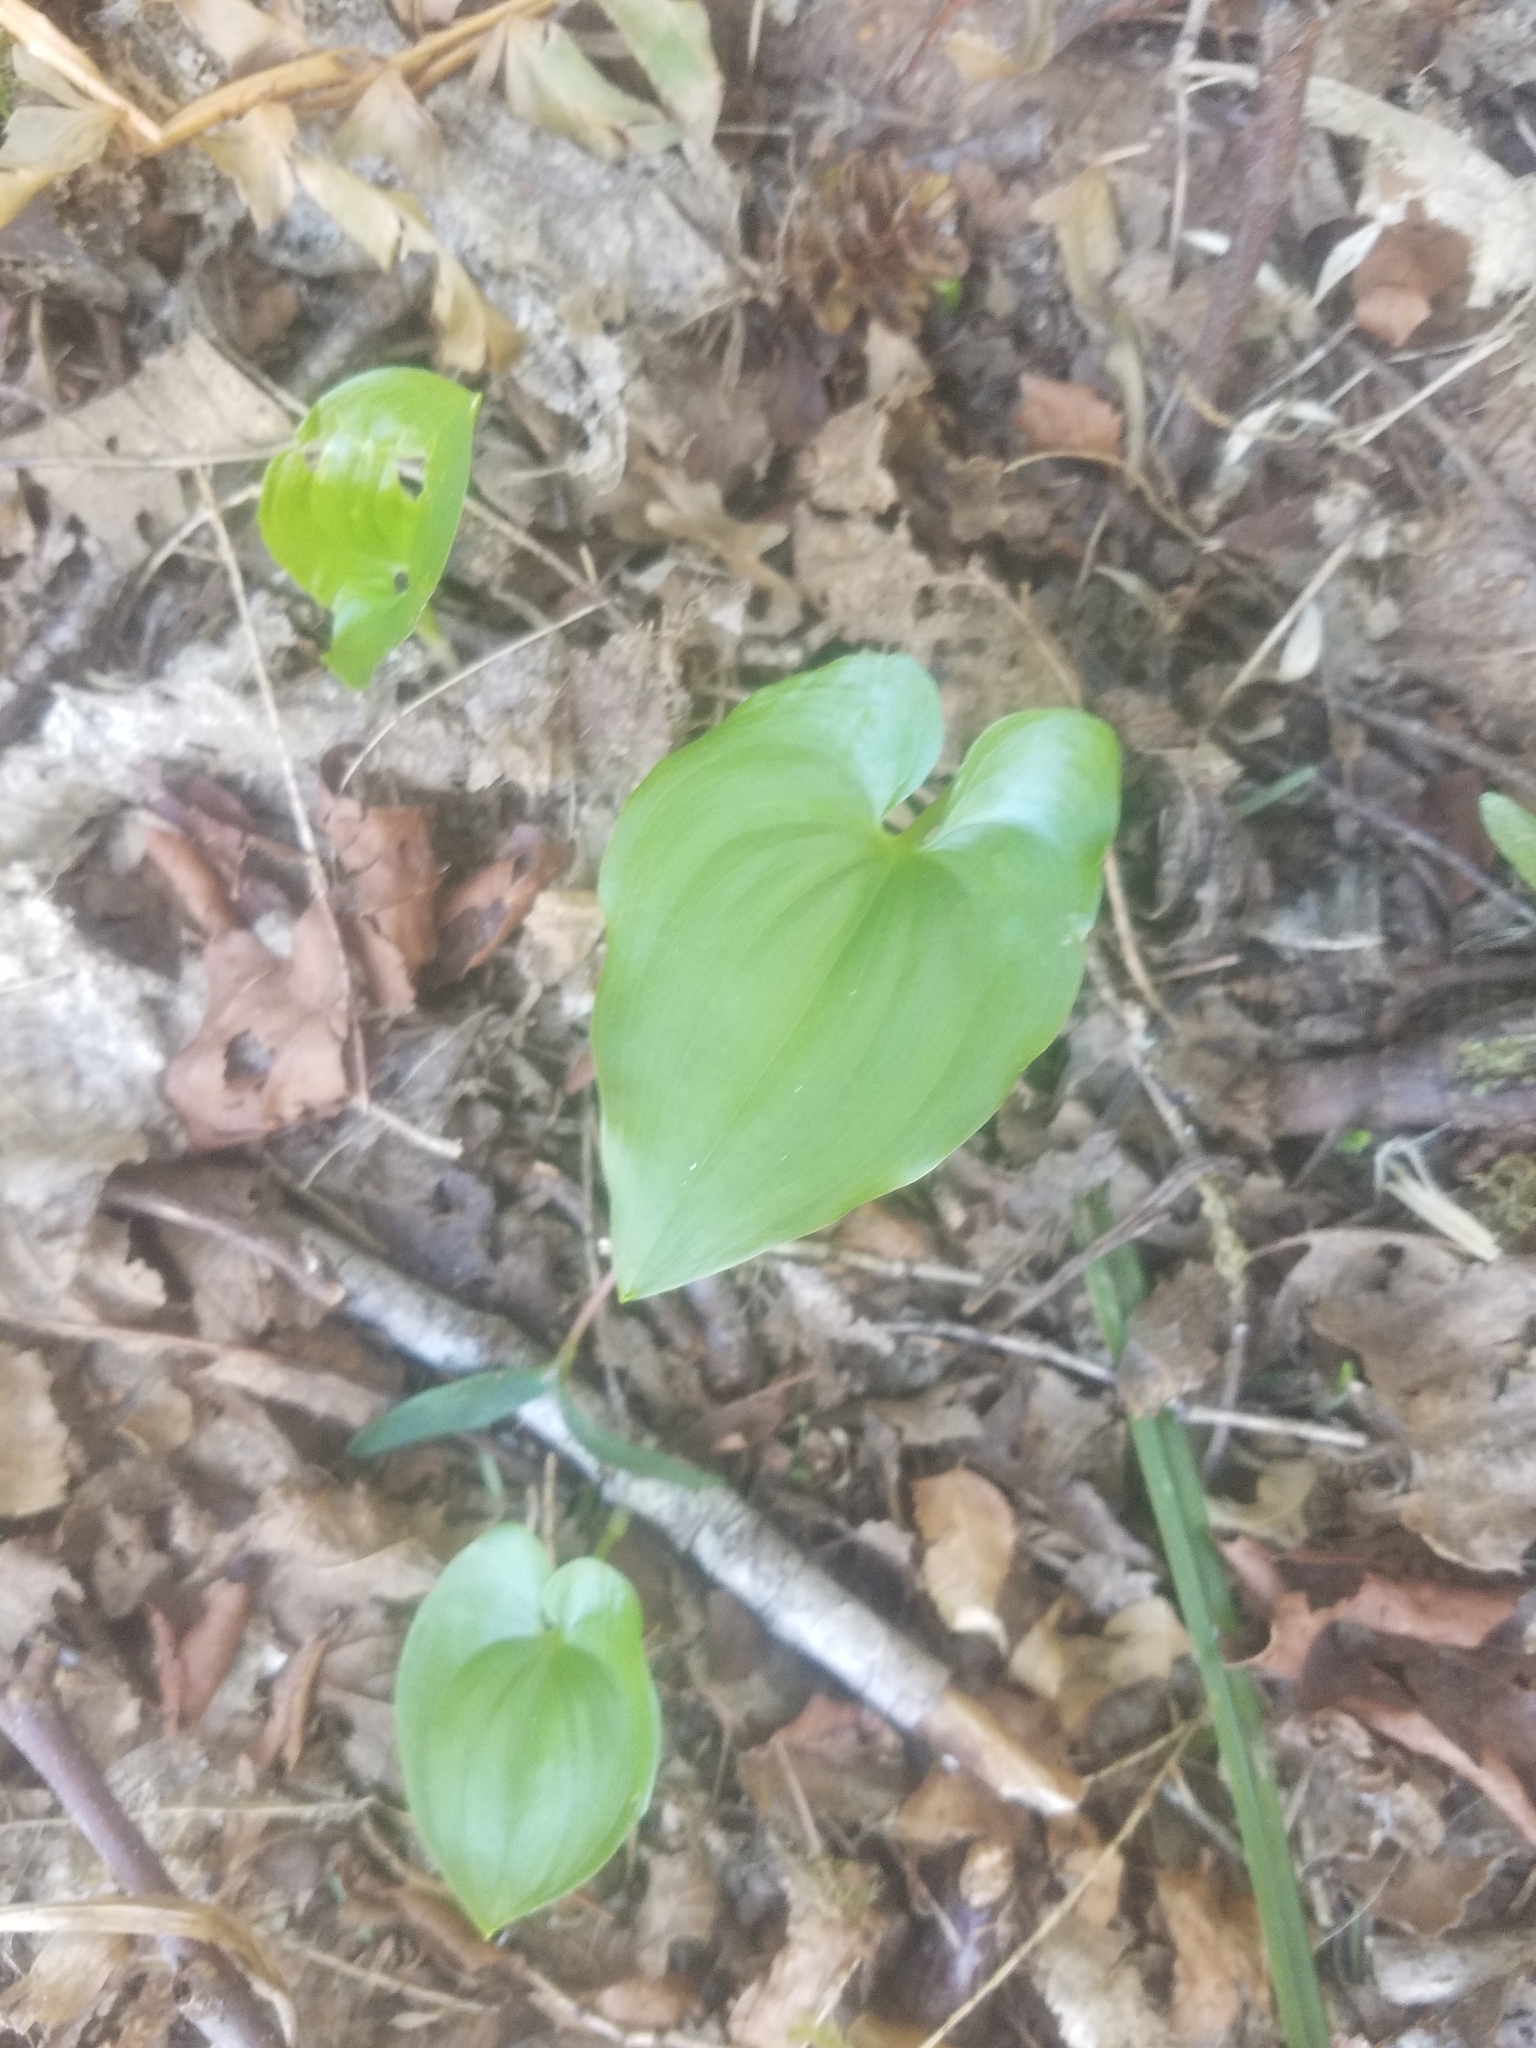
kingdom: Plantae
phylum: Tracheophyta
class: Liliopsida
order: Asparagales
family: Asparagaceae
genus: Maianthemum
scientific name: Maianthemum dilatatum
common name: False lily-of-the-valley
